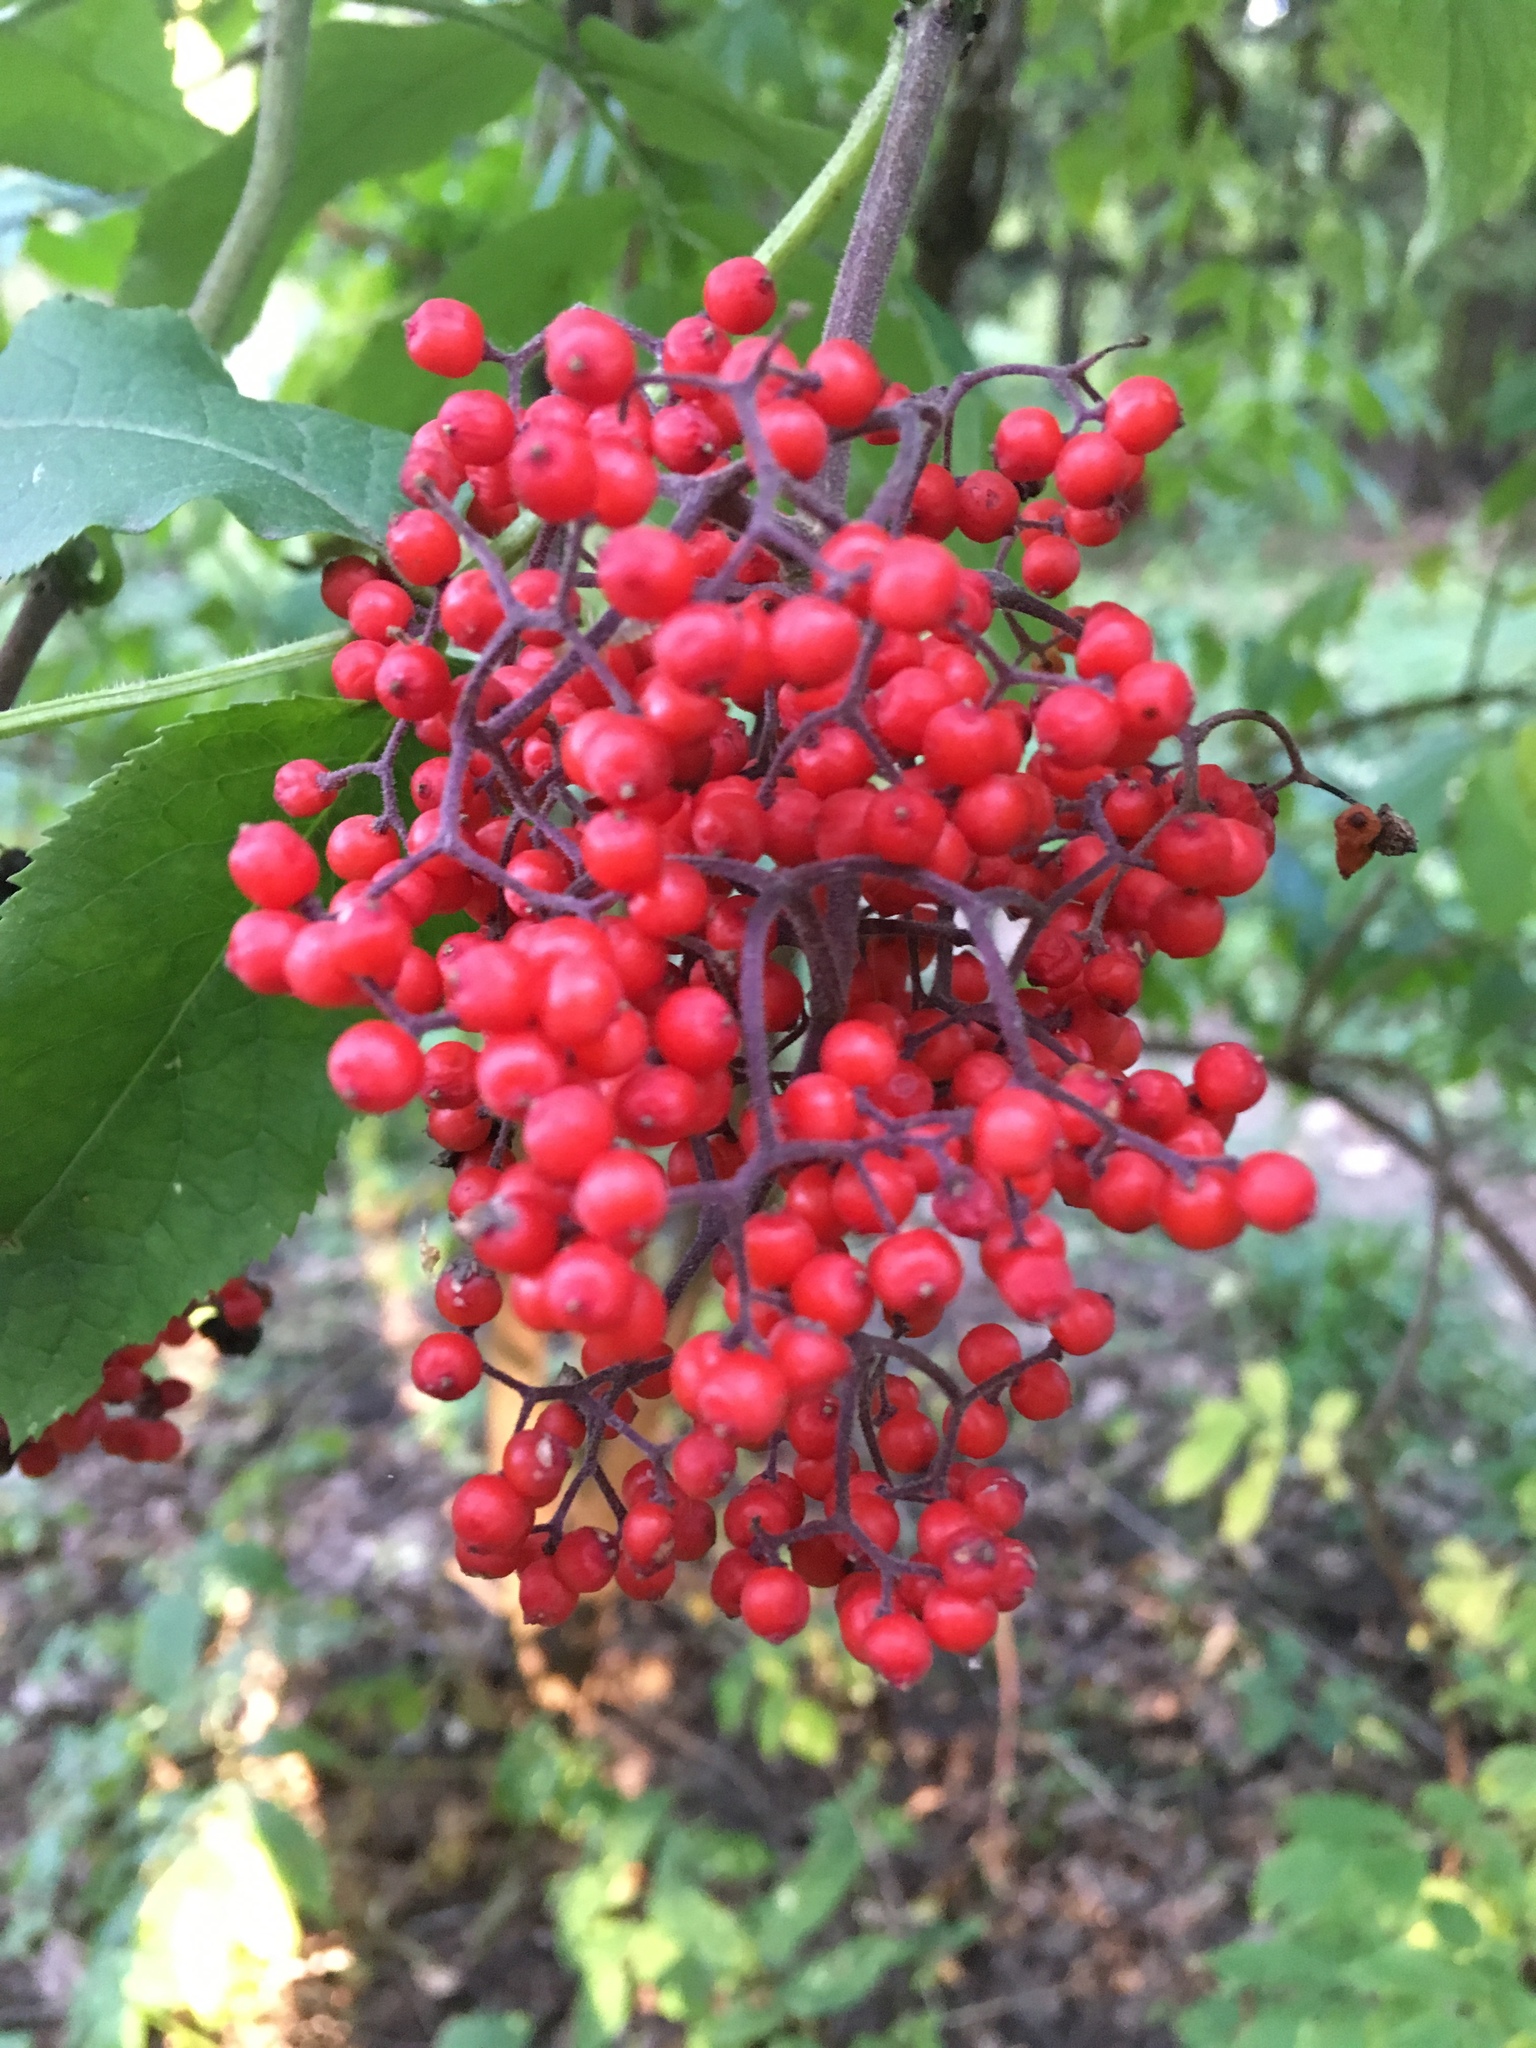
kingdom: Plantae
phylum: Tracheophyta
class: Magnoliopsida
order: Dipsacales
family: Viburnaceae
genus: Sambucus
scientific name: Sambucus racemosa
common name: Red-berried elder
